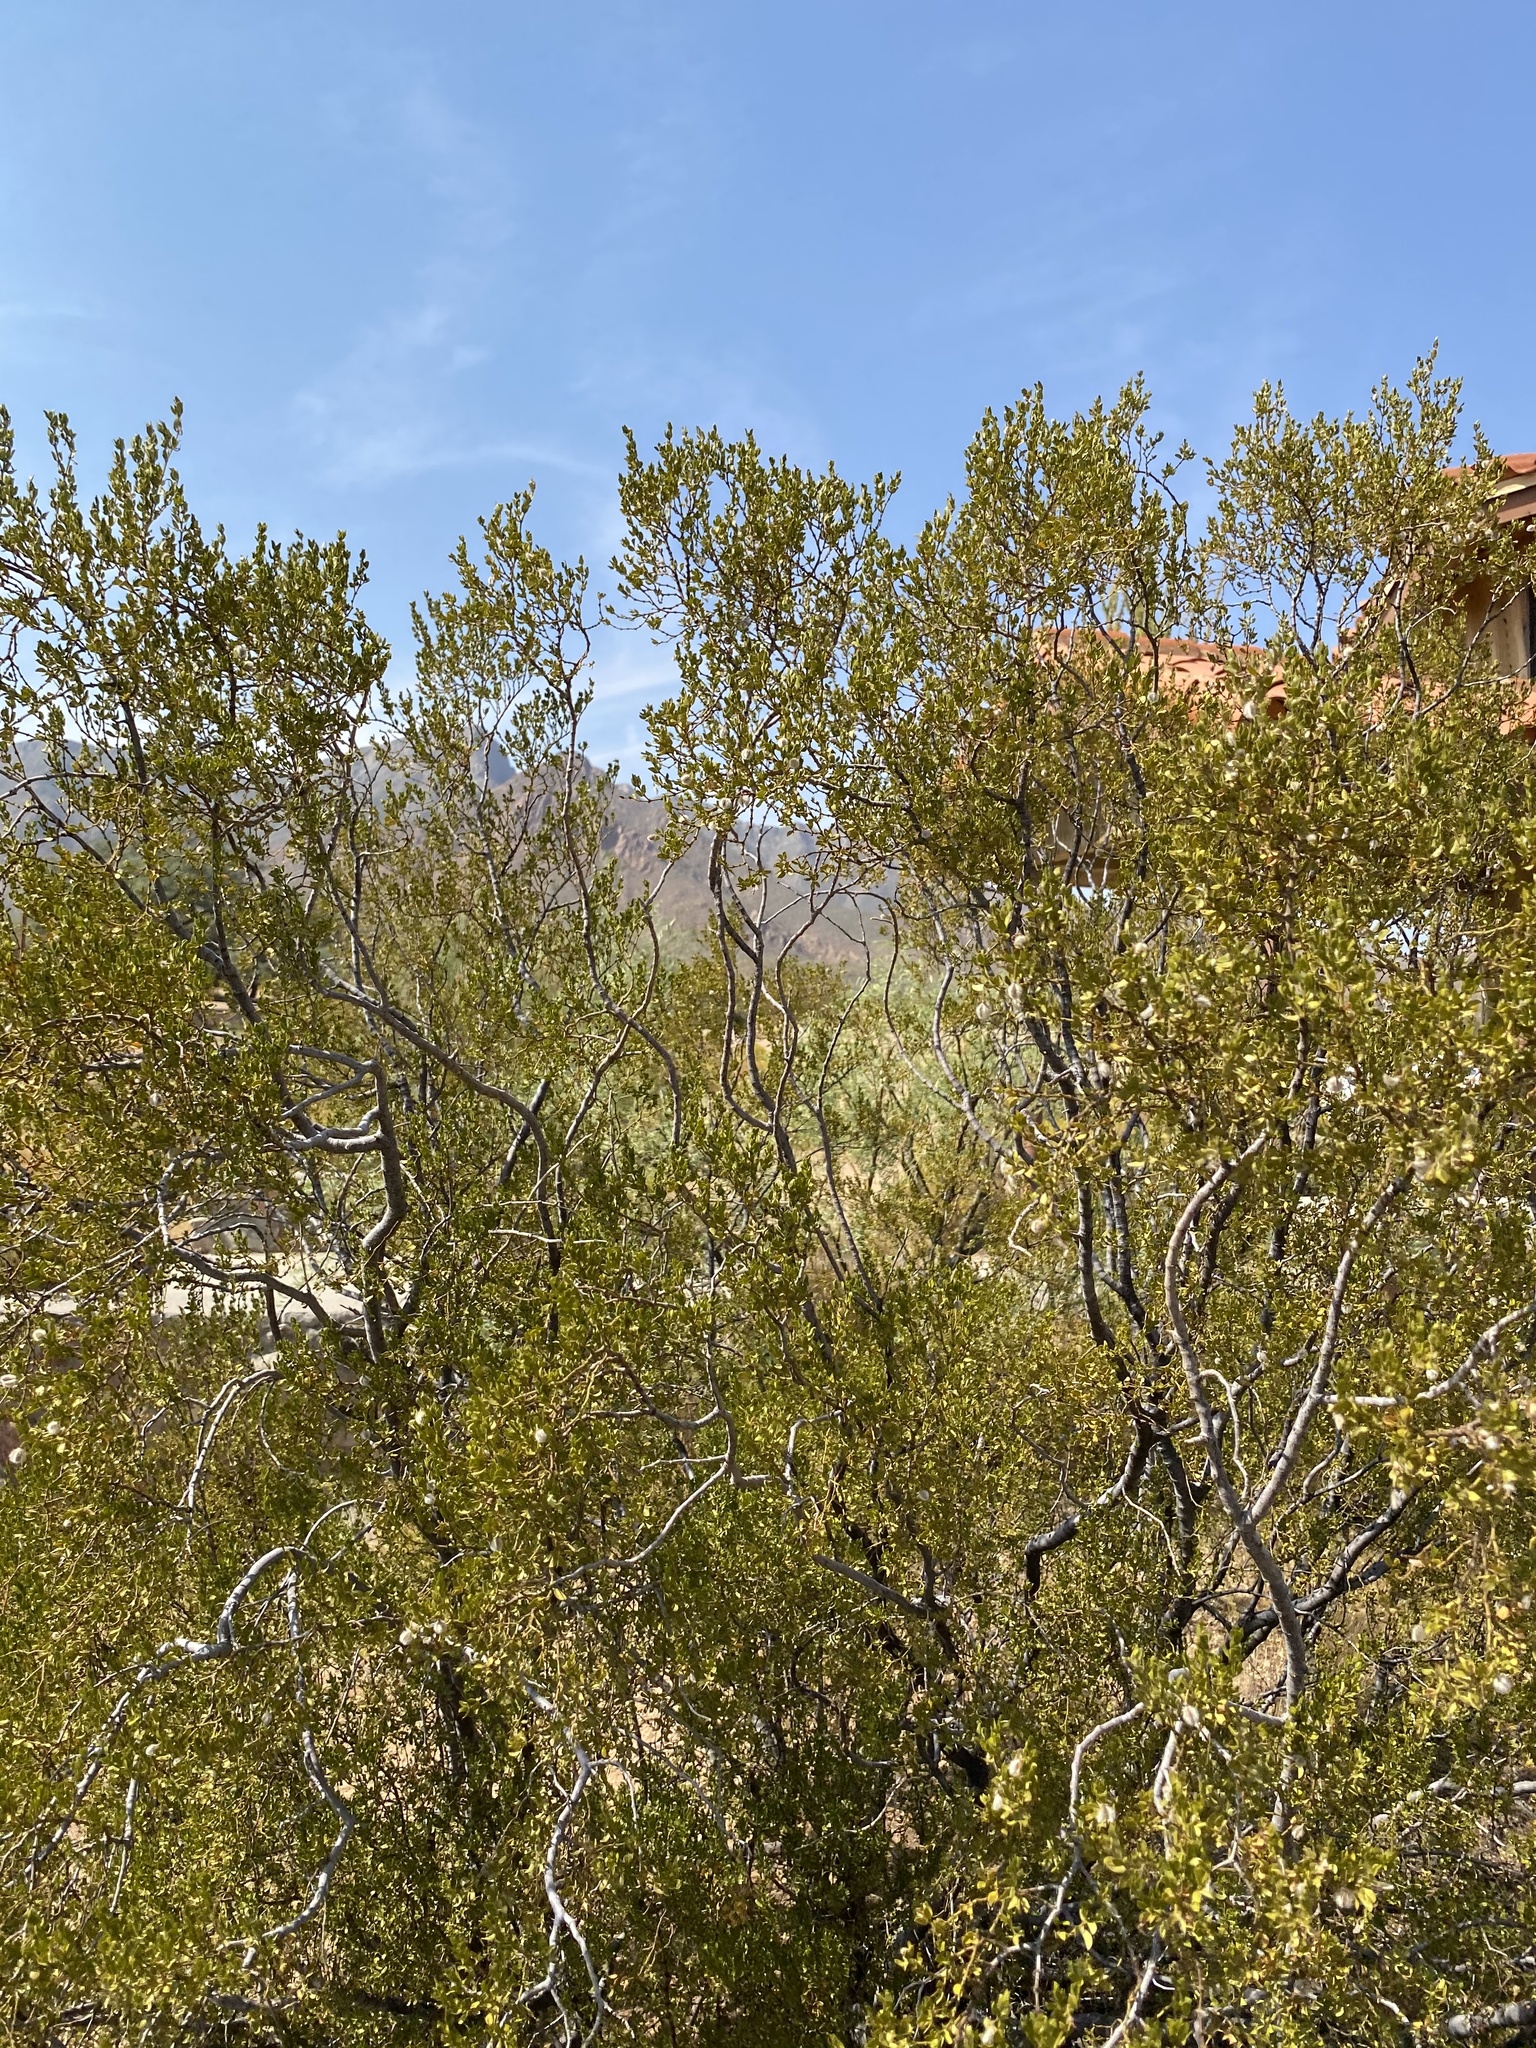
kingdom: Plantae
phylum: Tracheophyta
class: Magnoliopsida
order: Zygophyllales
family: Zygophyllaceae
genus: Larrea
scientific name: Larrea tridentata
